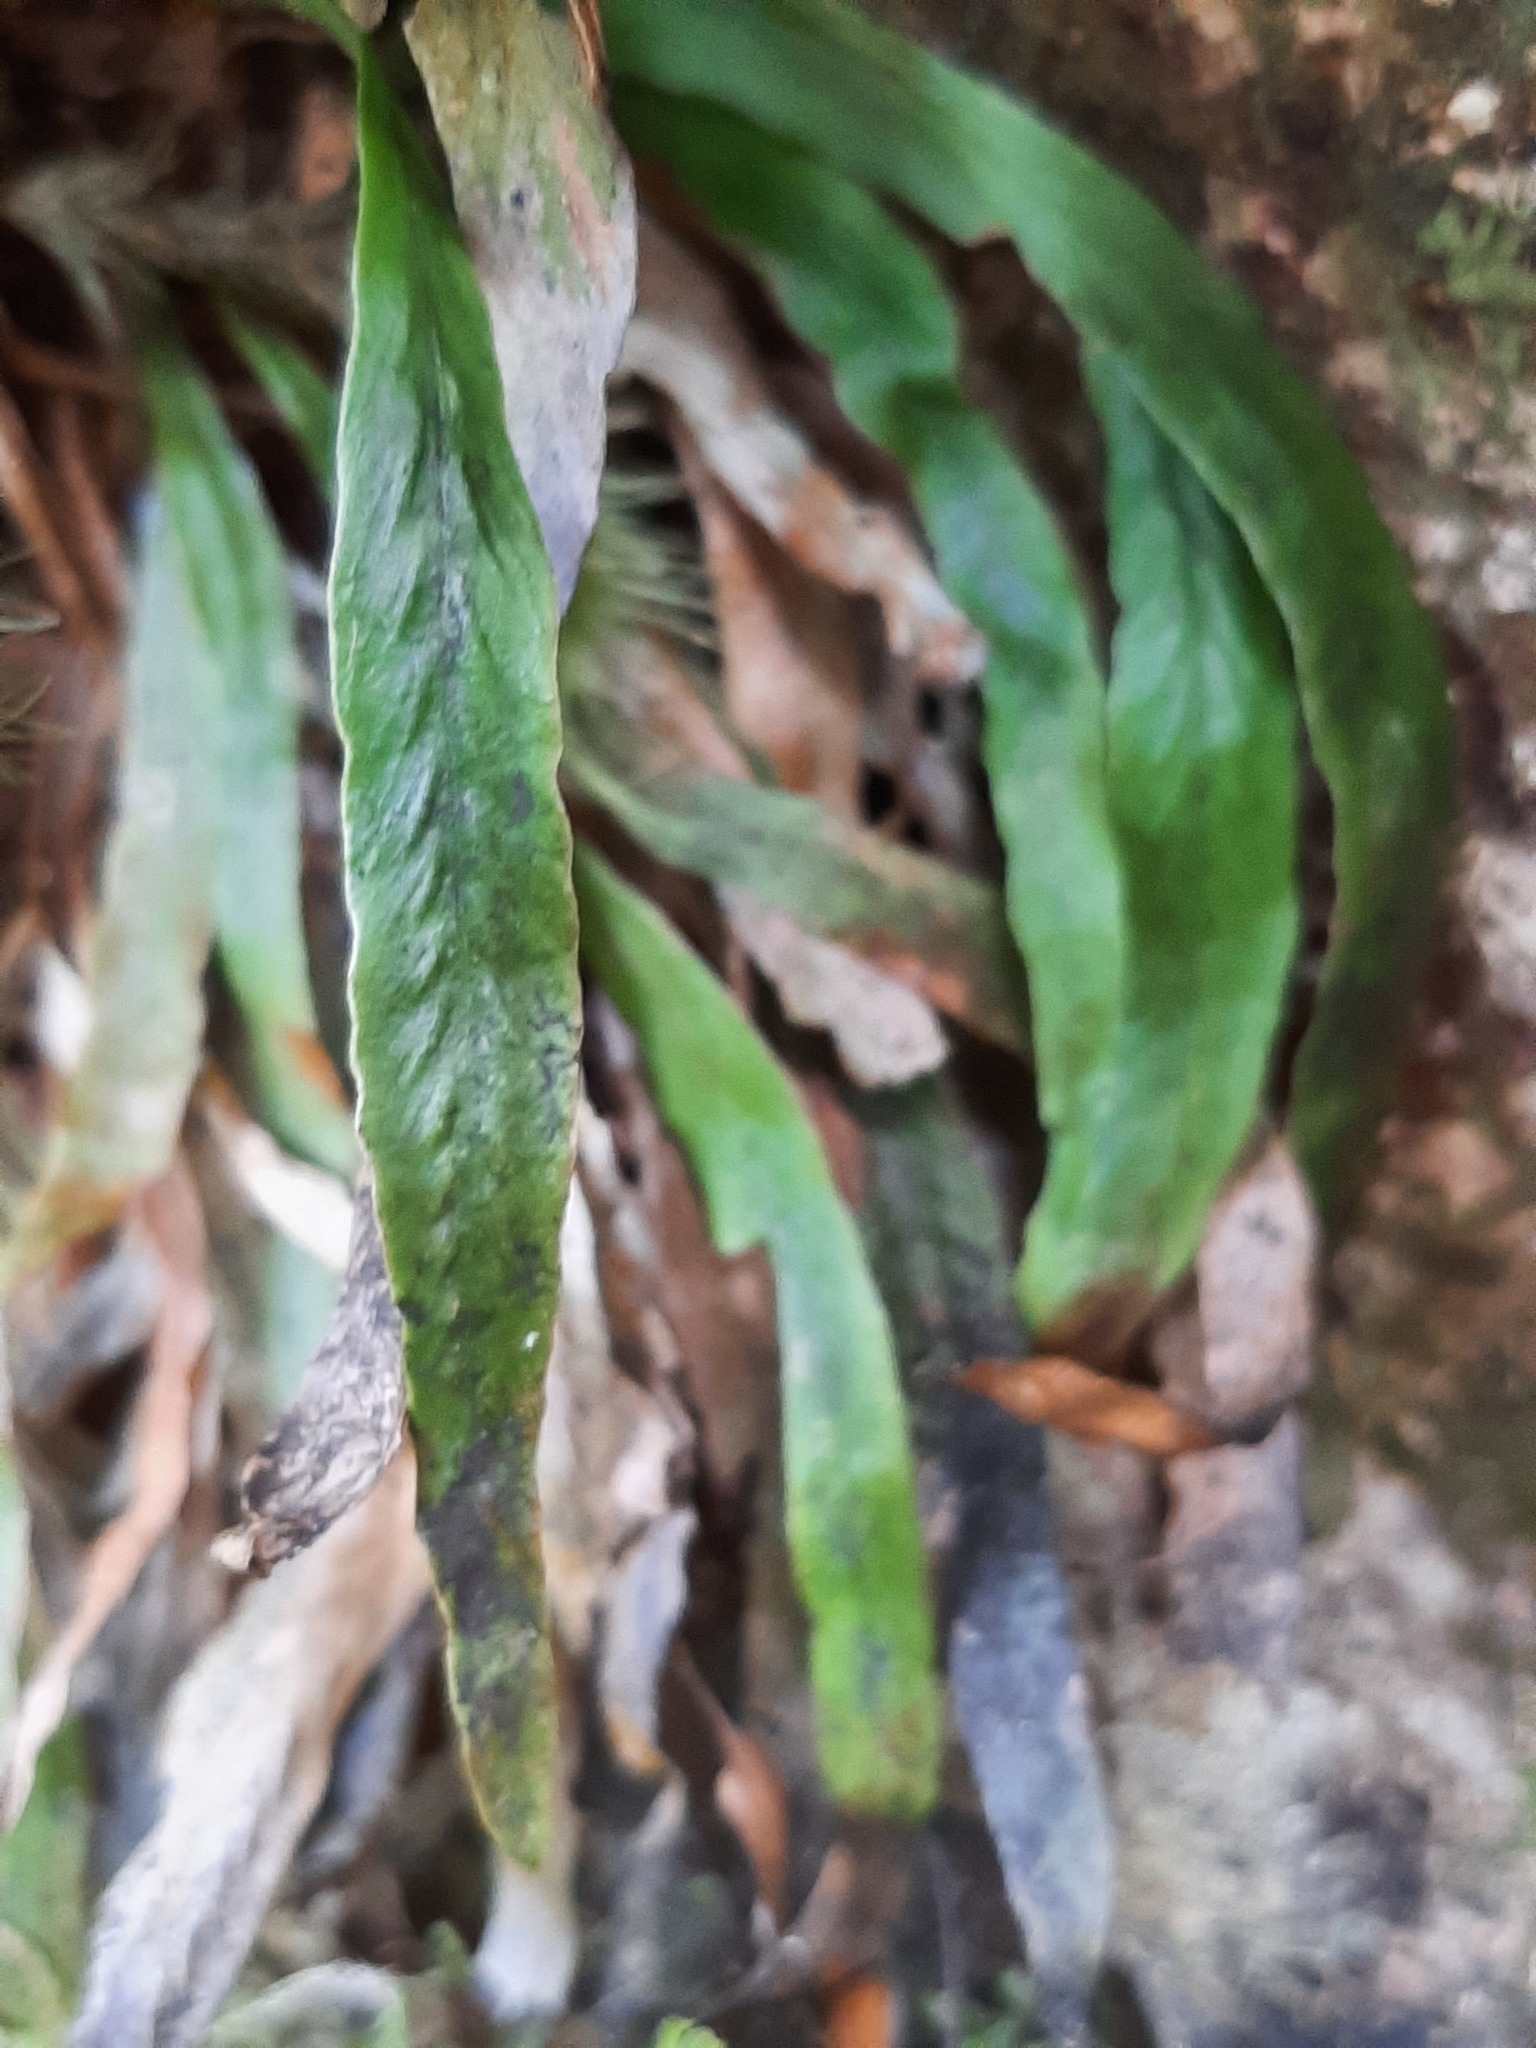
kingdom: Plantae
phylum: Tracheophyta
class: Polypodiopsida
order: Polypodiales
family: Polypodiaceae
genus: Notogrammitis
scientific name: Notogrammitis billardierei
